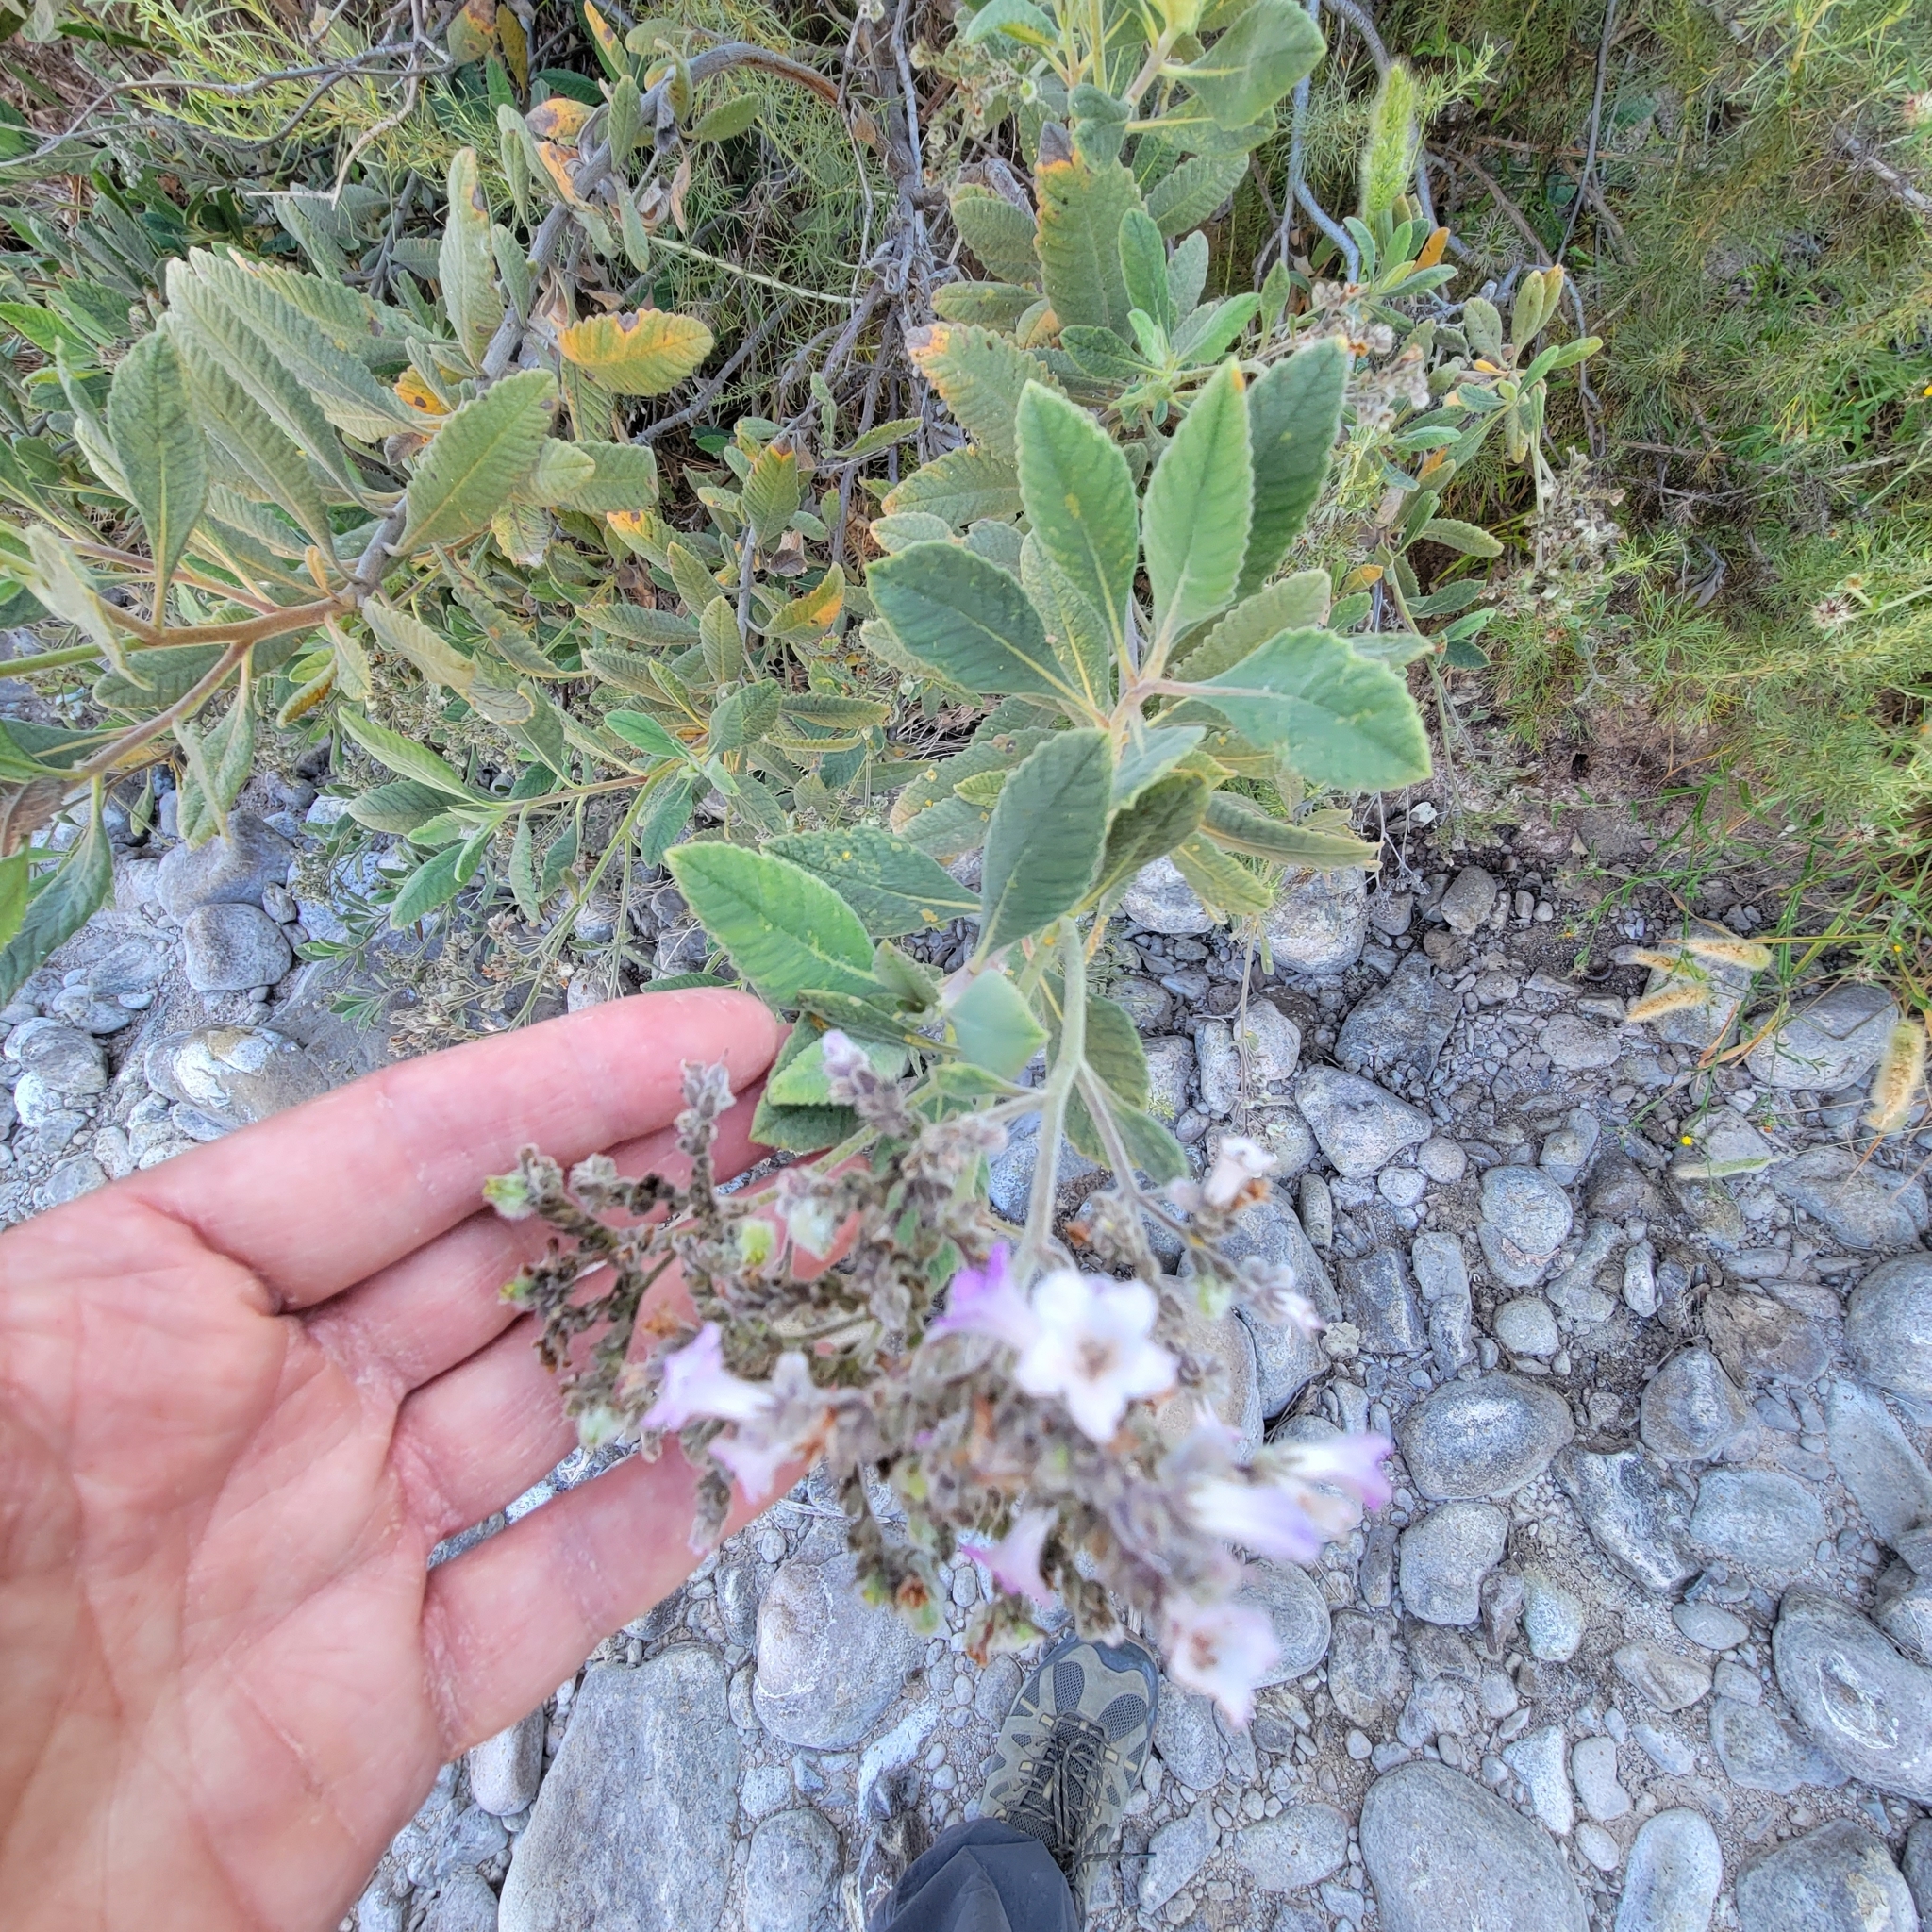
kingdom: Plantae
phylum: Tracheophyta
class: Magnoliopsida
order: Boraginales
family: Namaceae
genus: Eriodictyon
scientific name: Eriodictyon crassifolium
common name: Thick-leaf yerba-santa
